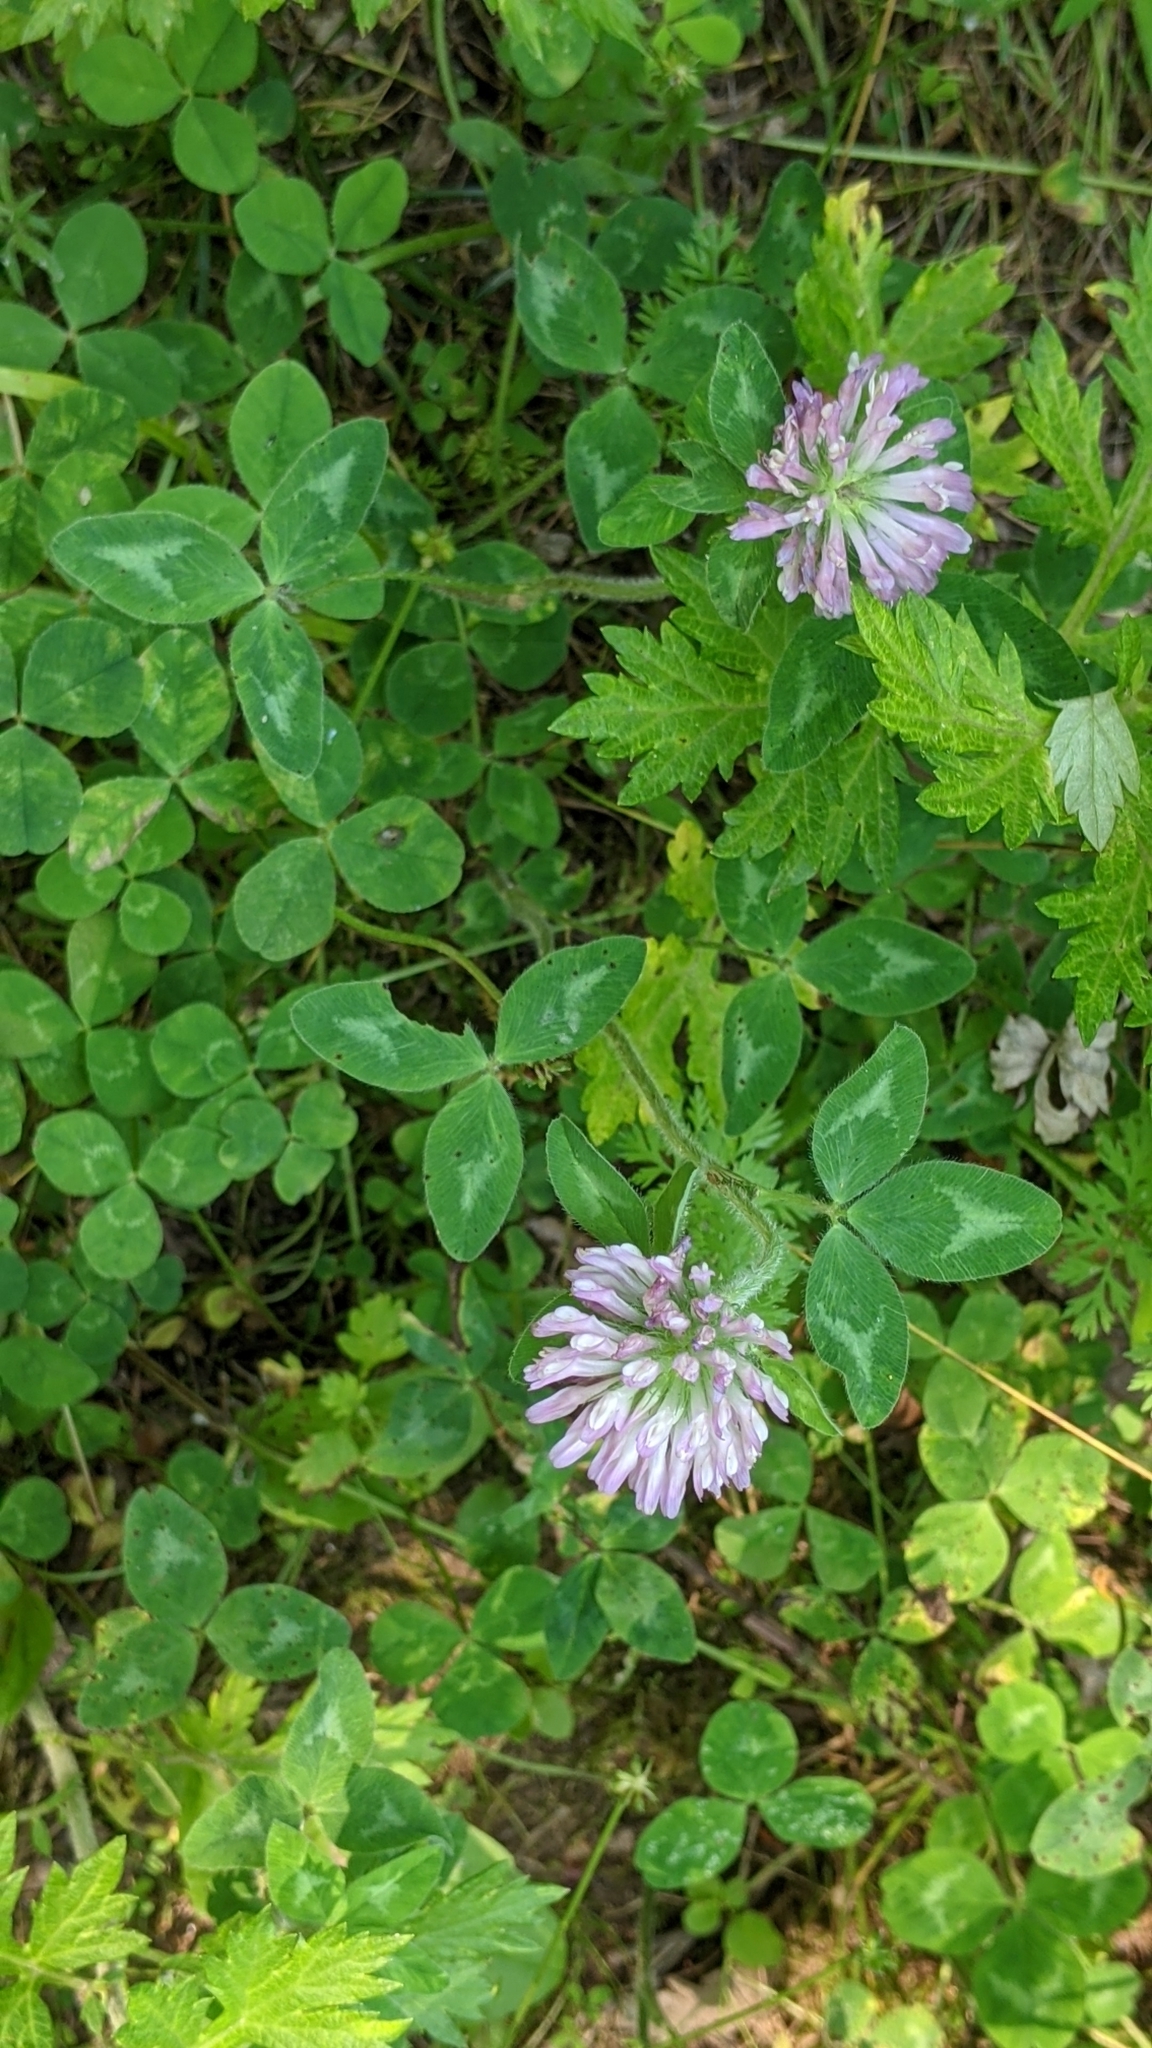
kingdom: Plantae
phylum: Tracheophyta
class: Magnoliopsida
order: Fabales
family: Fabaceae
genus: Trifolium
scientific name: Trifolium pratense
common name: Red clover
